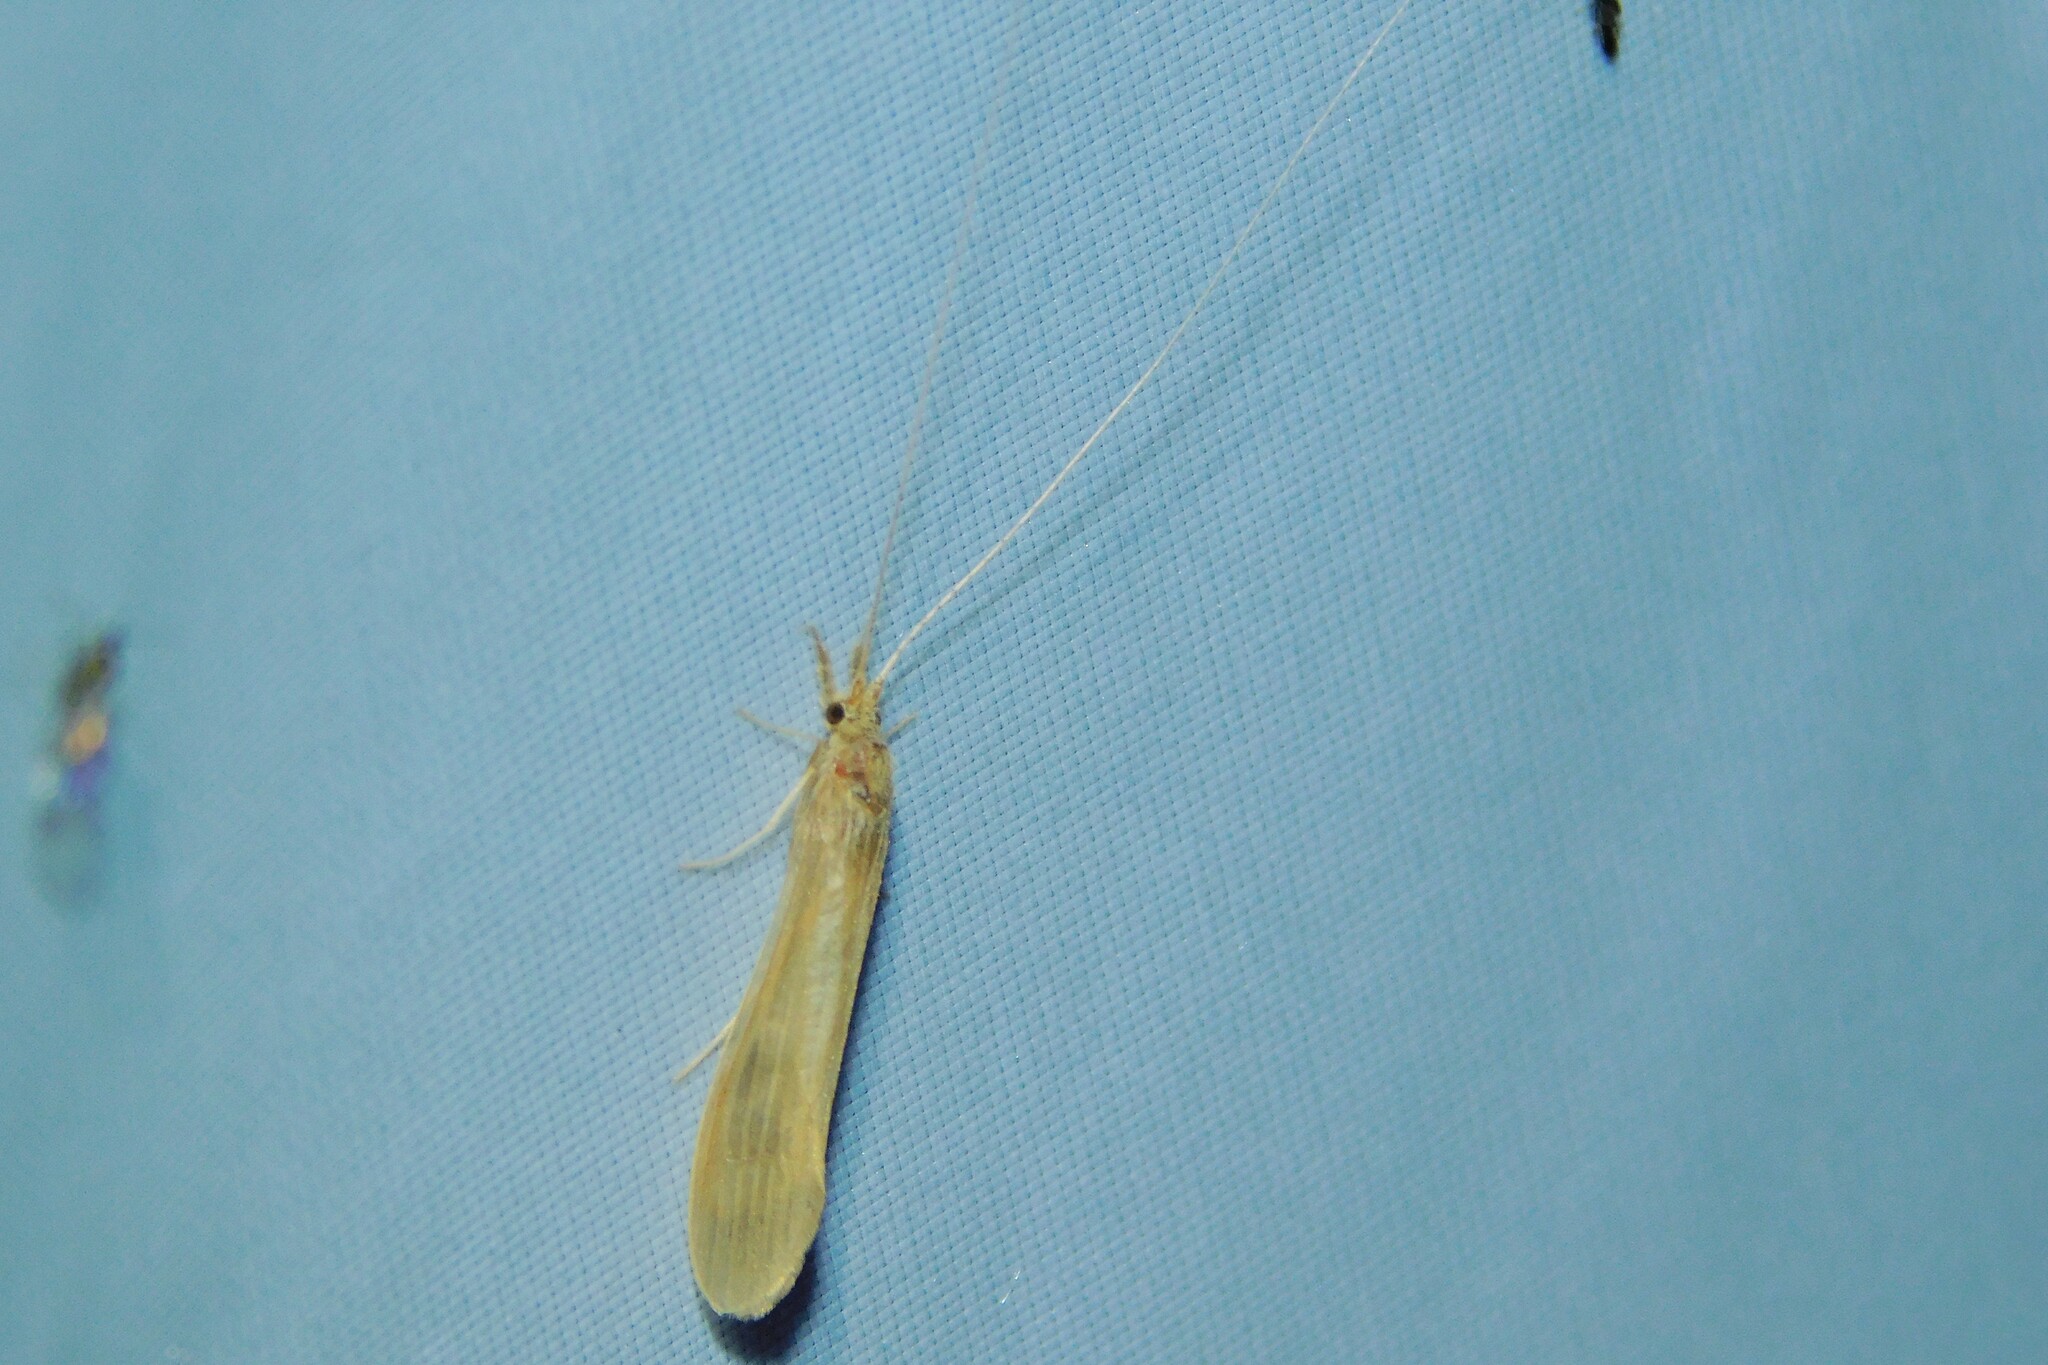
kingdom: Animalia
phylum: Arthropoda
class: Insecta
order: Trichoptera
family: Leptoceridae
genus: Oecetis
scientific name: Oecetis ochracea
